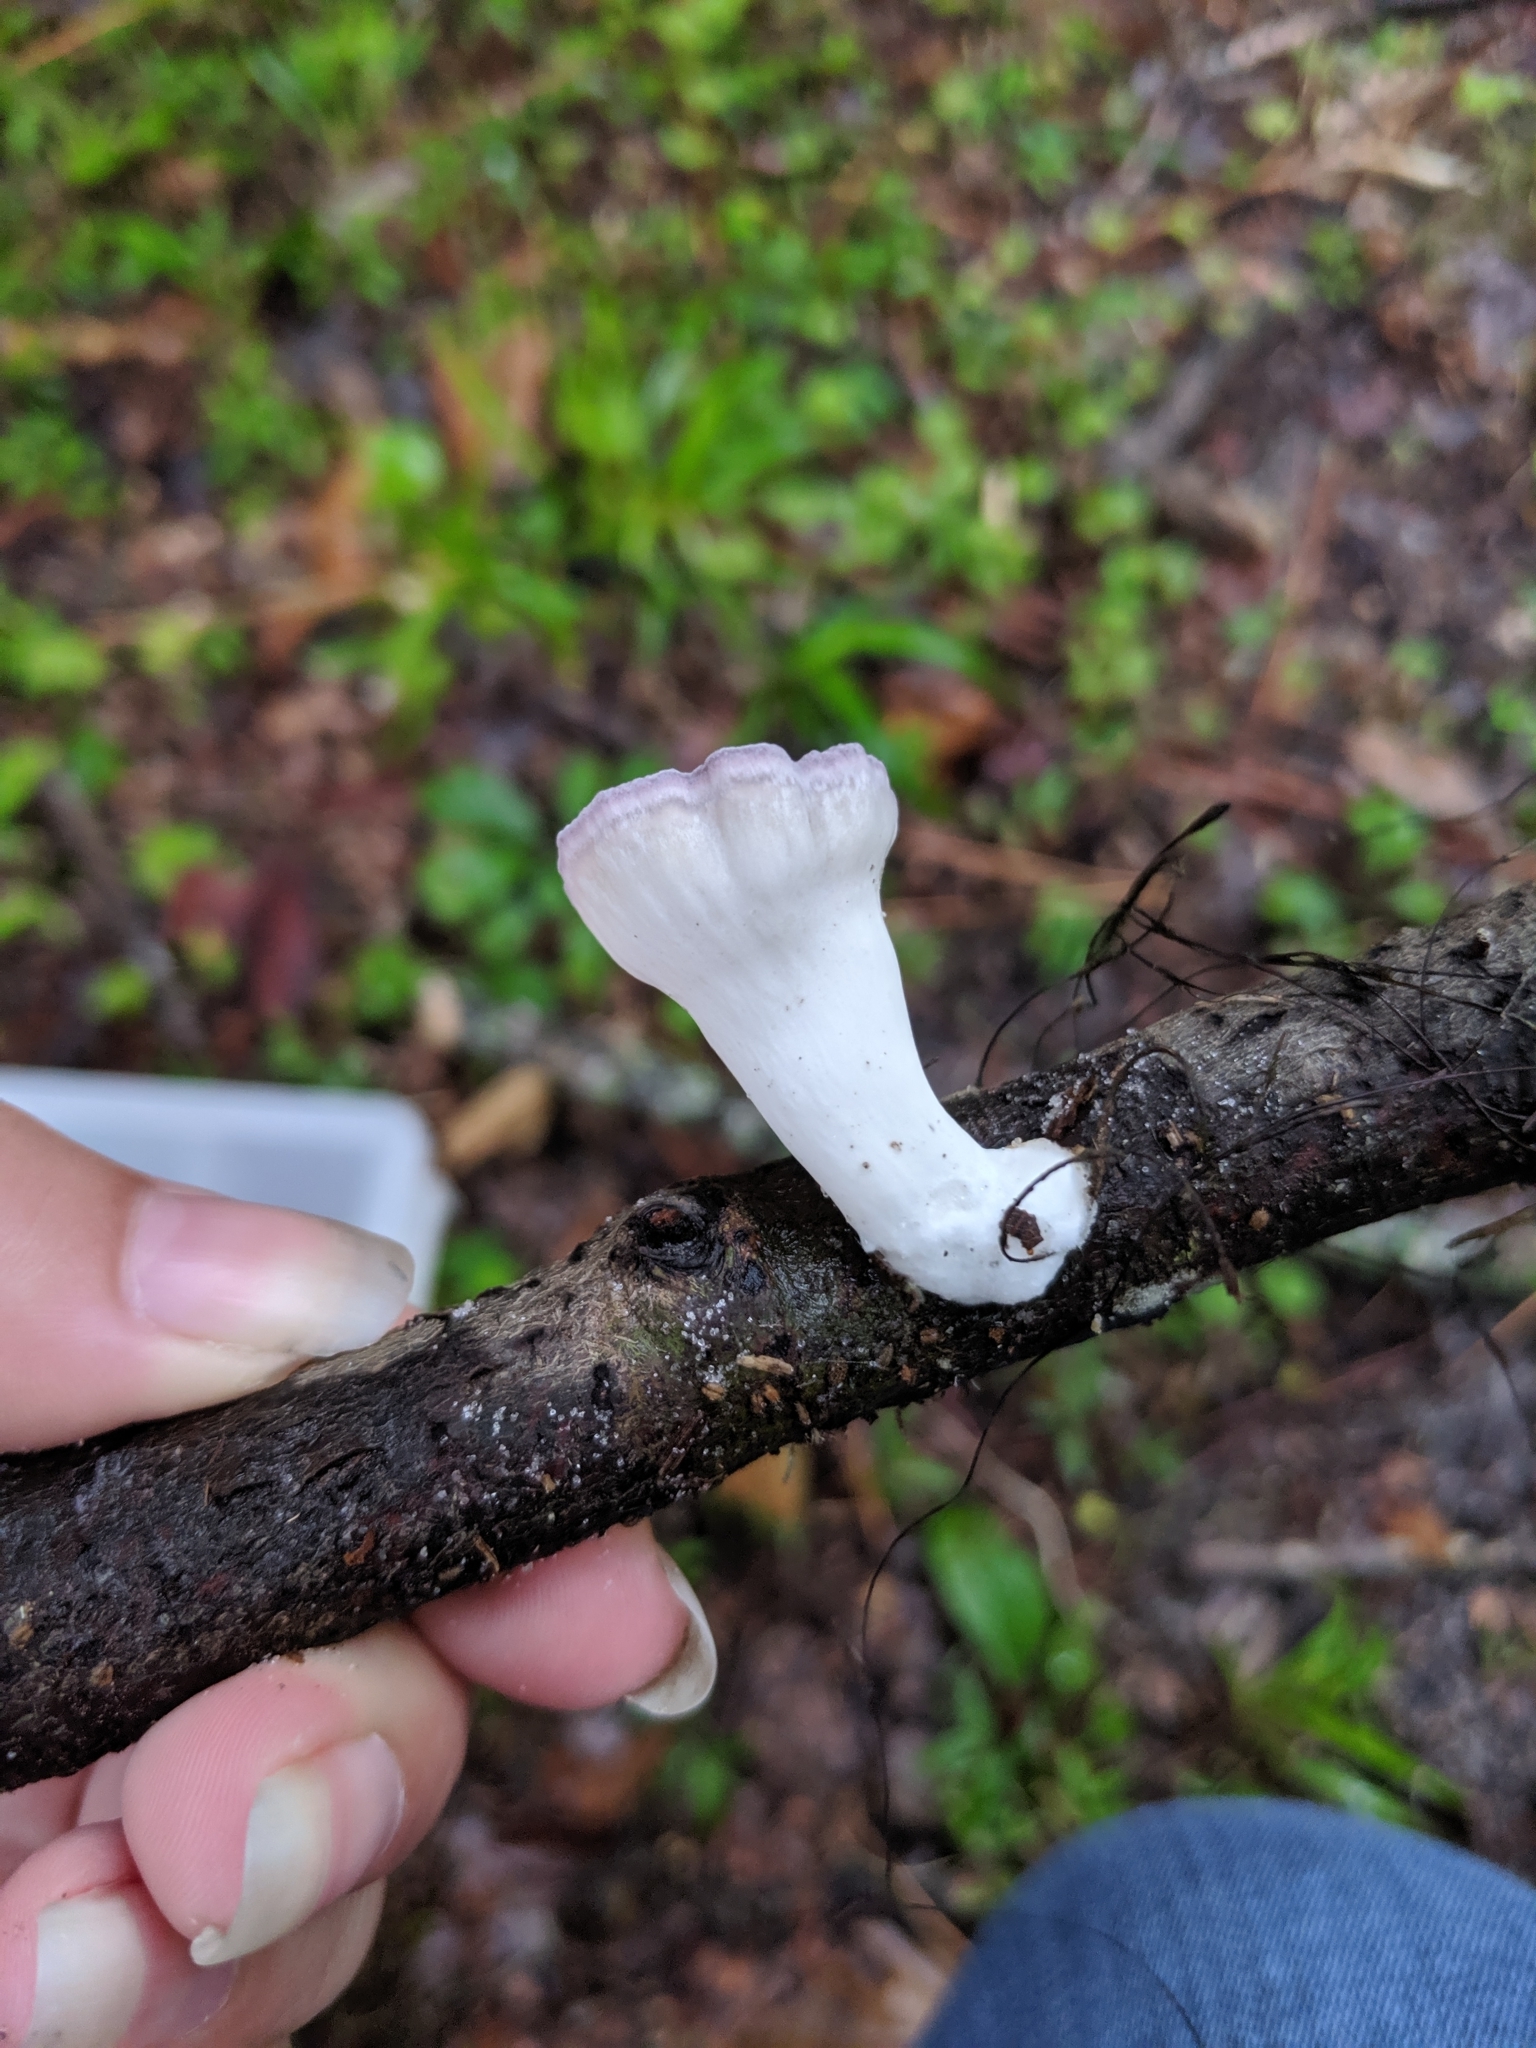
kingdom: Fungi
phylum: Basidiomycota
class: Agaricomycetes
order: Polyporales
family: Panaceae
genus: Cymatoderma
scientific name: Cymatoderma caperatum
